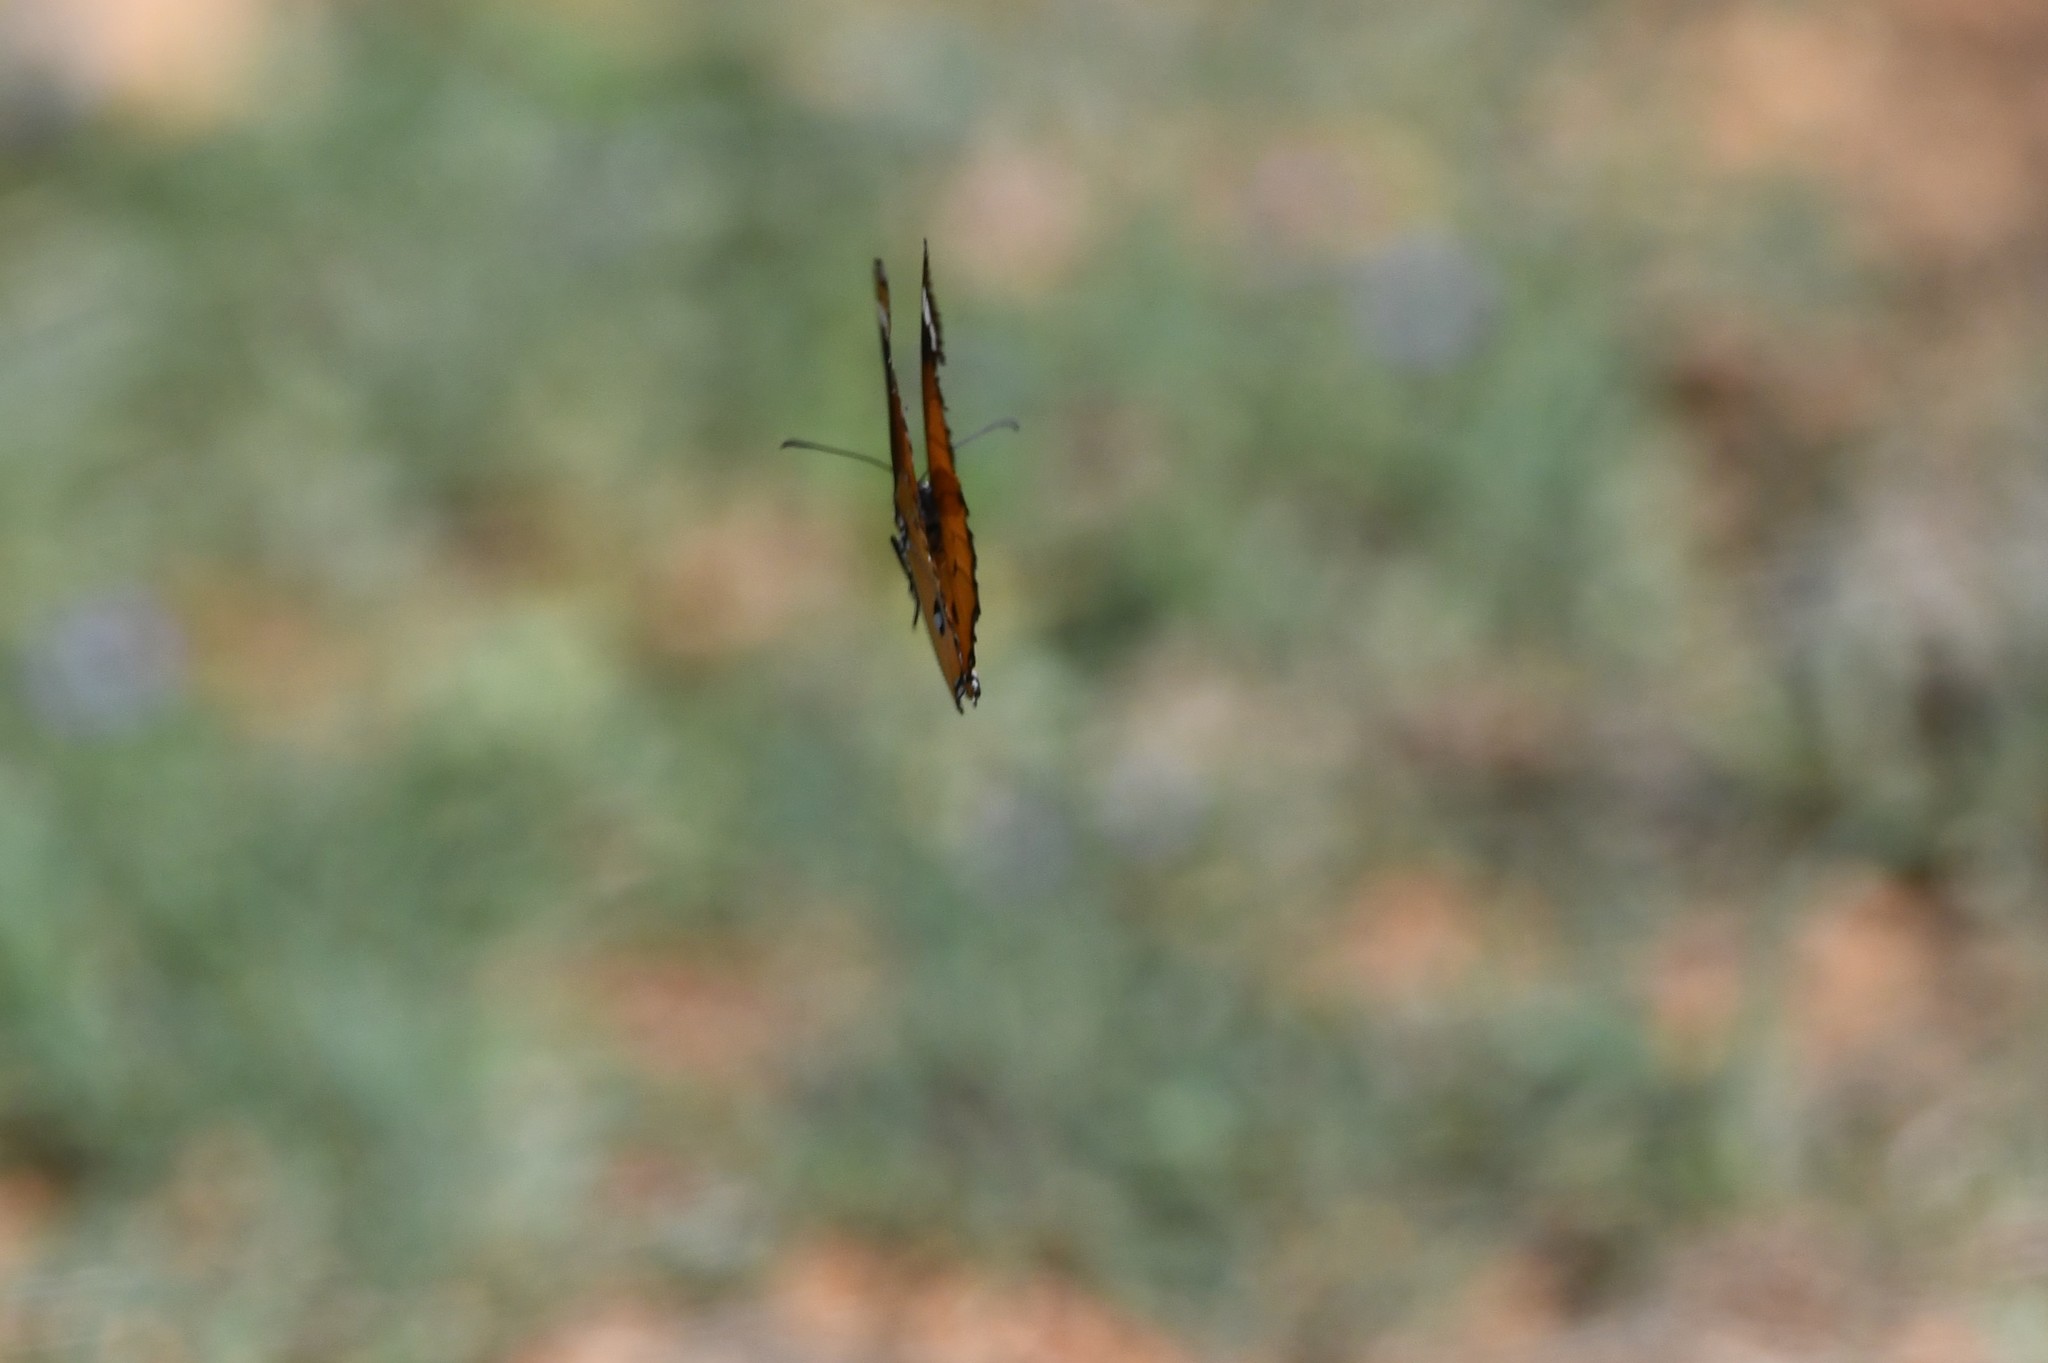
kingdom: Animalia
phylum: Arthropoda
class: Insecta
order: Lepidoptera
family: Nymphalidae
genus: Danaus
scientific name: Danaus chrysippus
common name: Plain tiger
